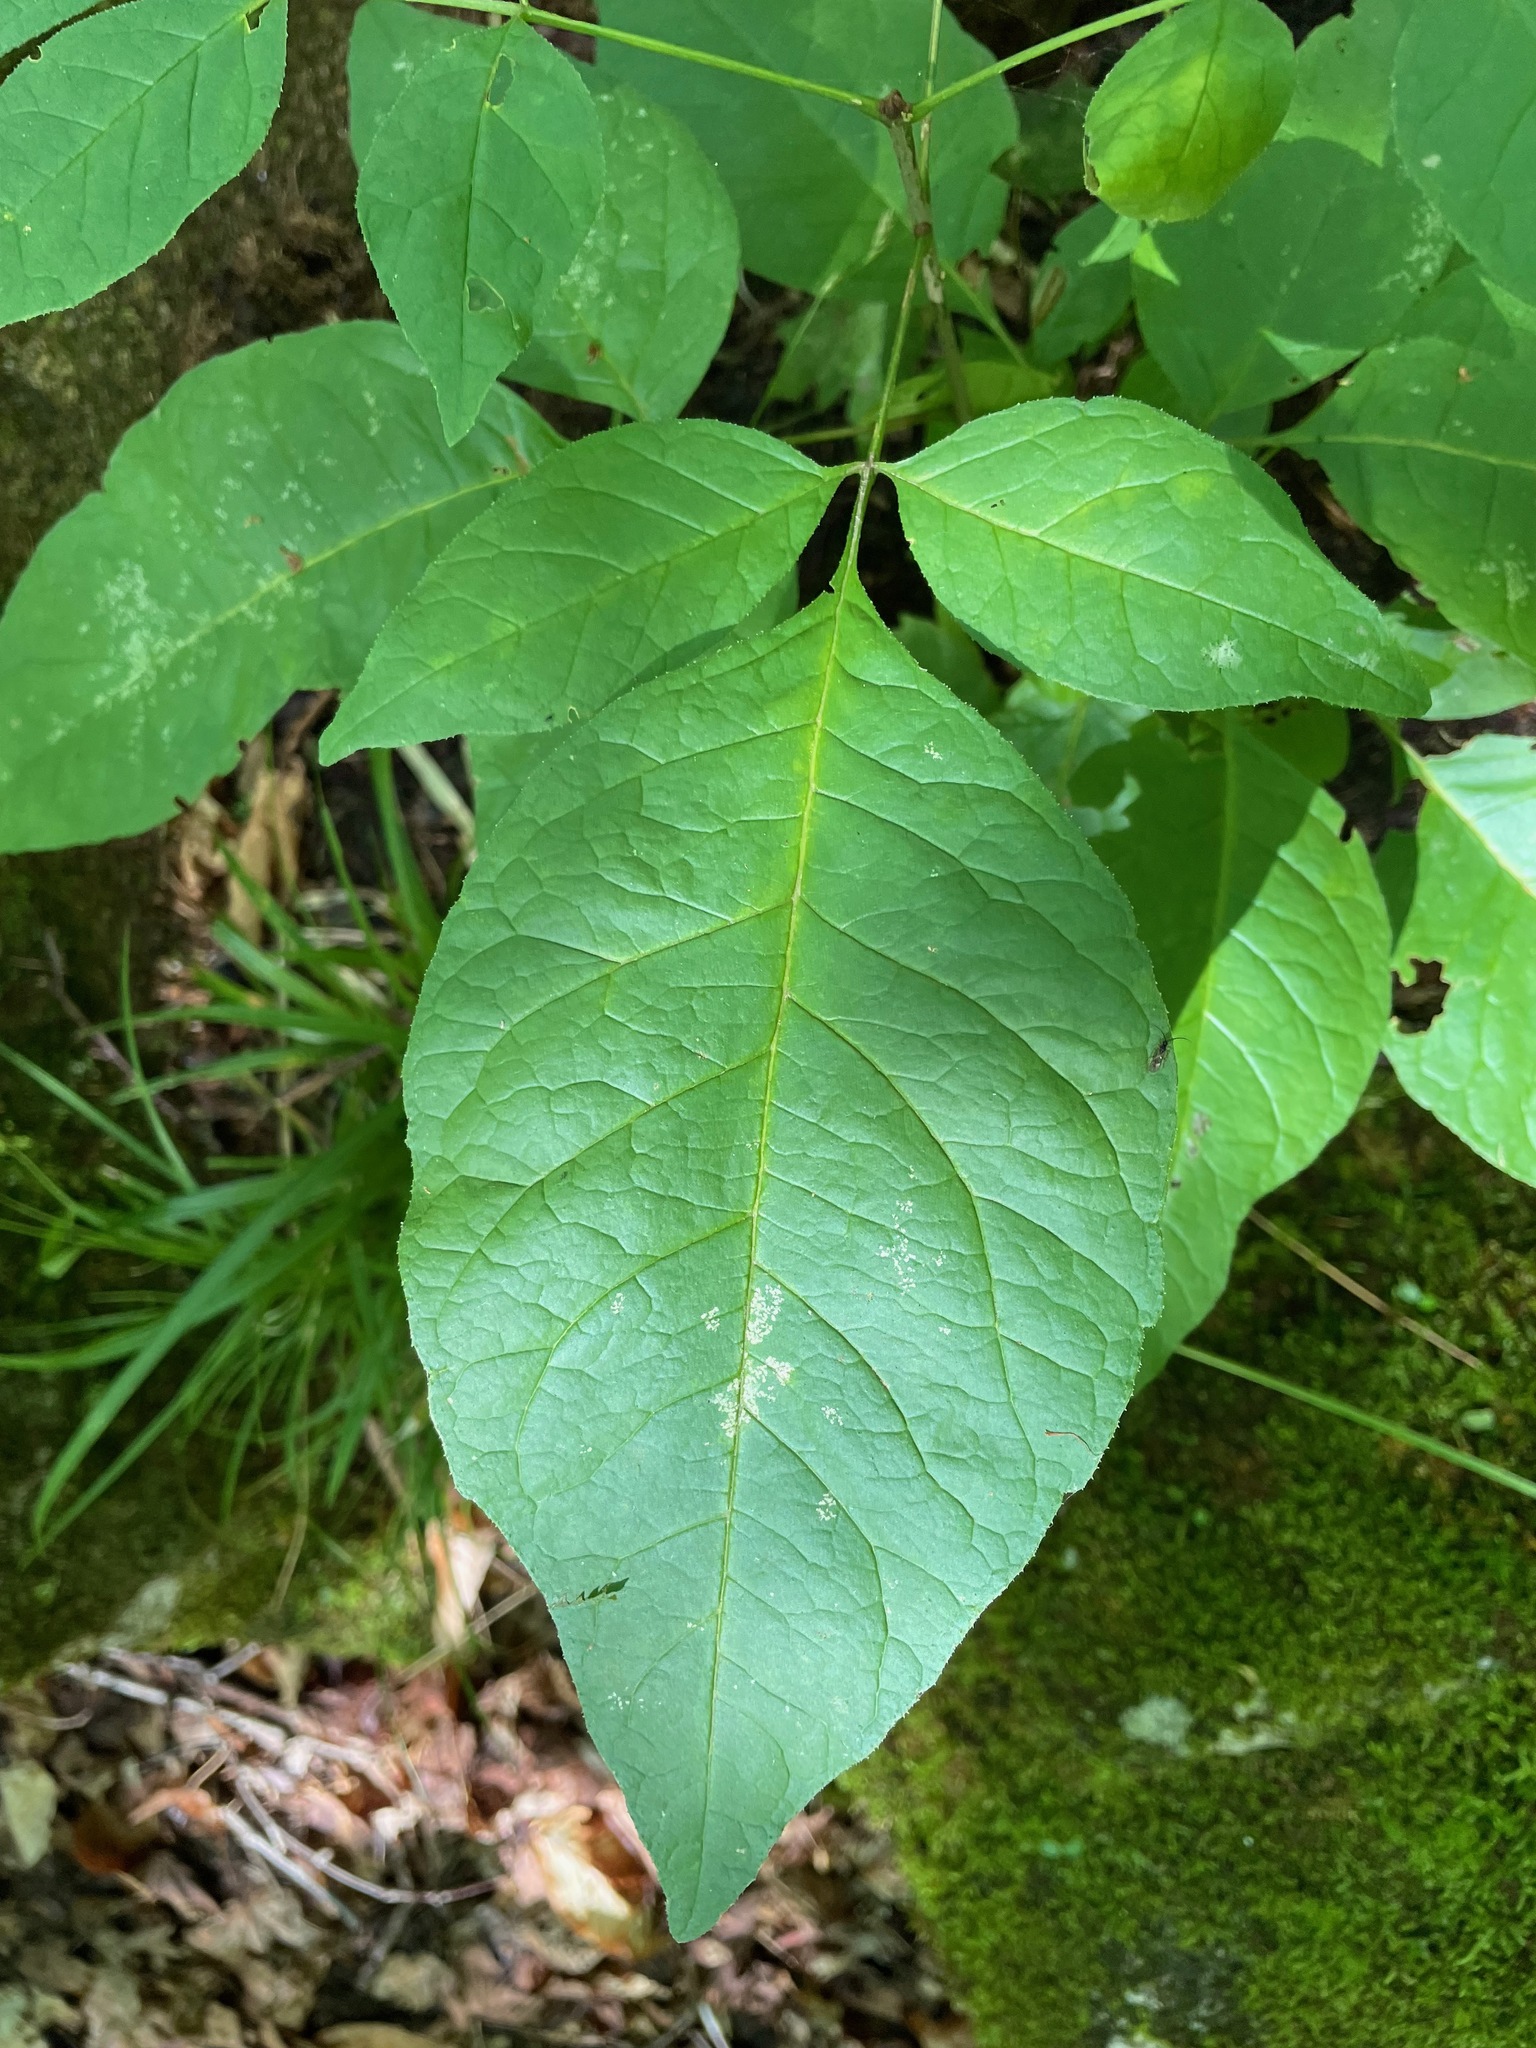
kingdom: Plantae
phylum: Tracheophyta
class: Magnoliopsida
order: Lamiales
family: Oleaceae
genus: Fraxinus
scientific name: Fraxinus americana
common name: White ash
